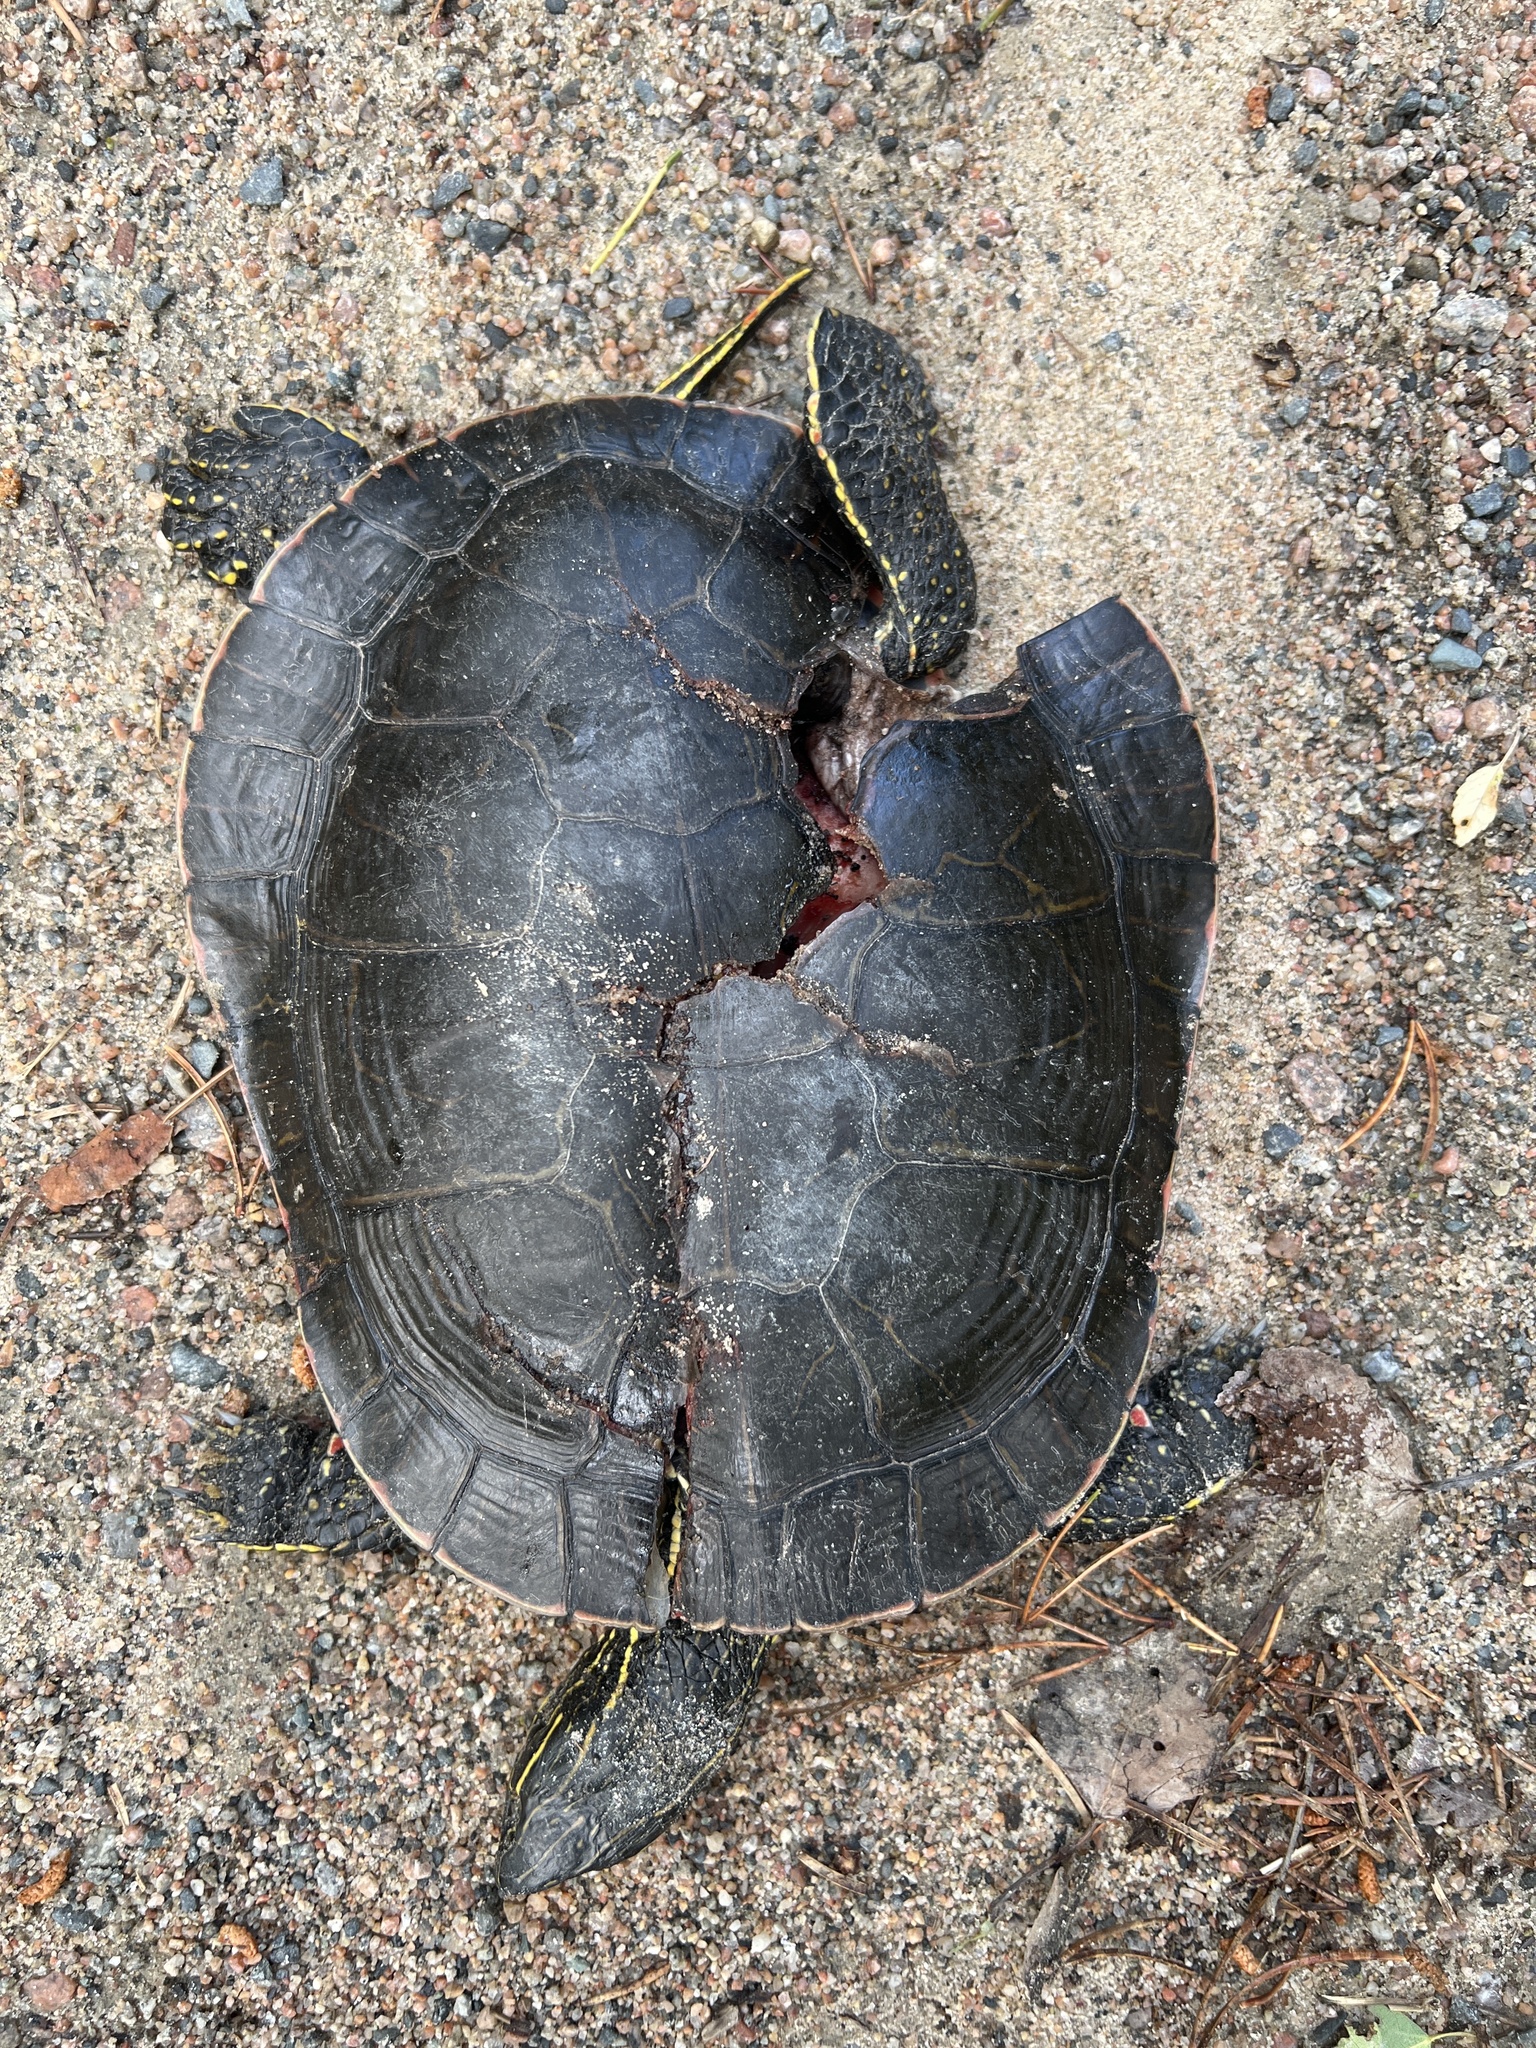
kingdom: Animalia
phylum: Chordata
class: Testudines
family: Emydidae
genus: Chrysemys
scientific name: Chrysemys picta
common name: Painted turtle
